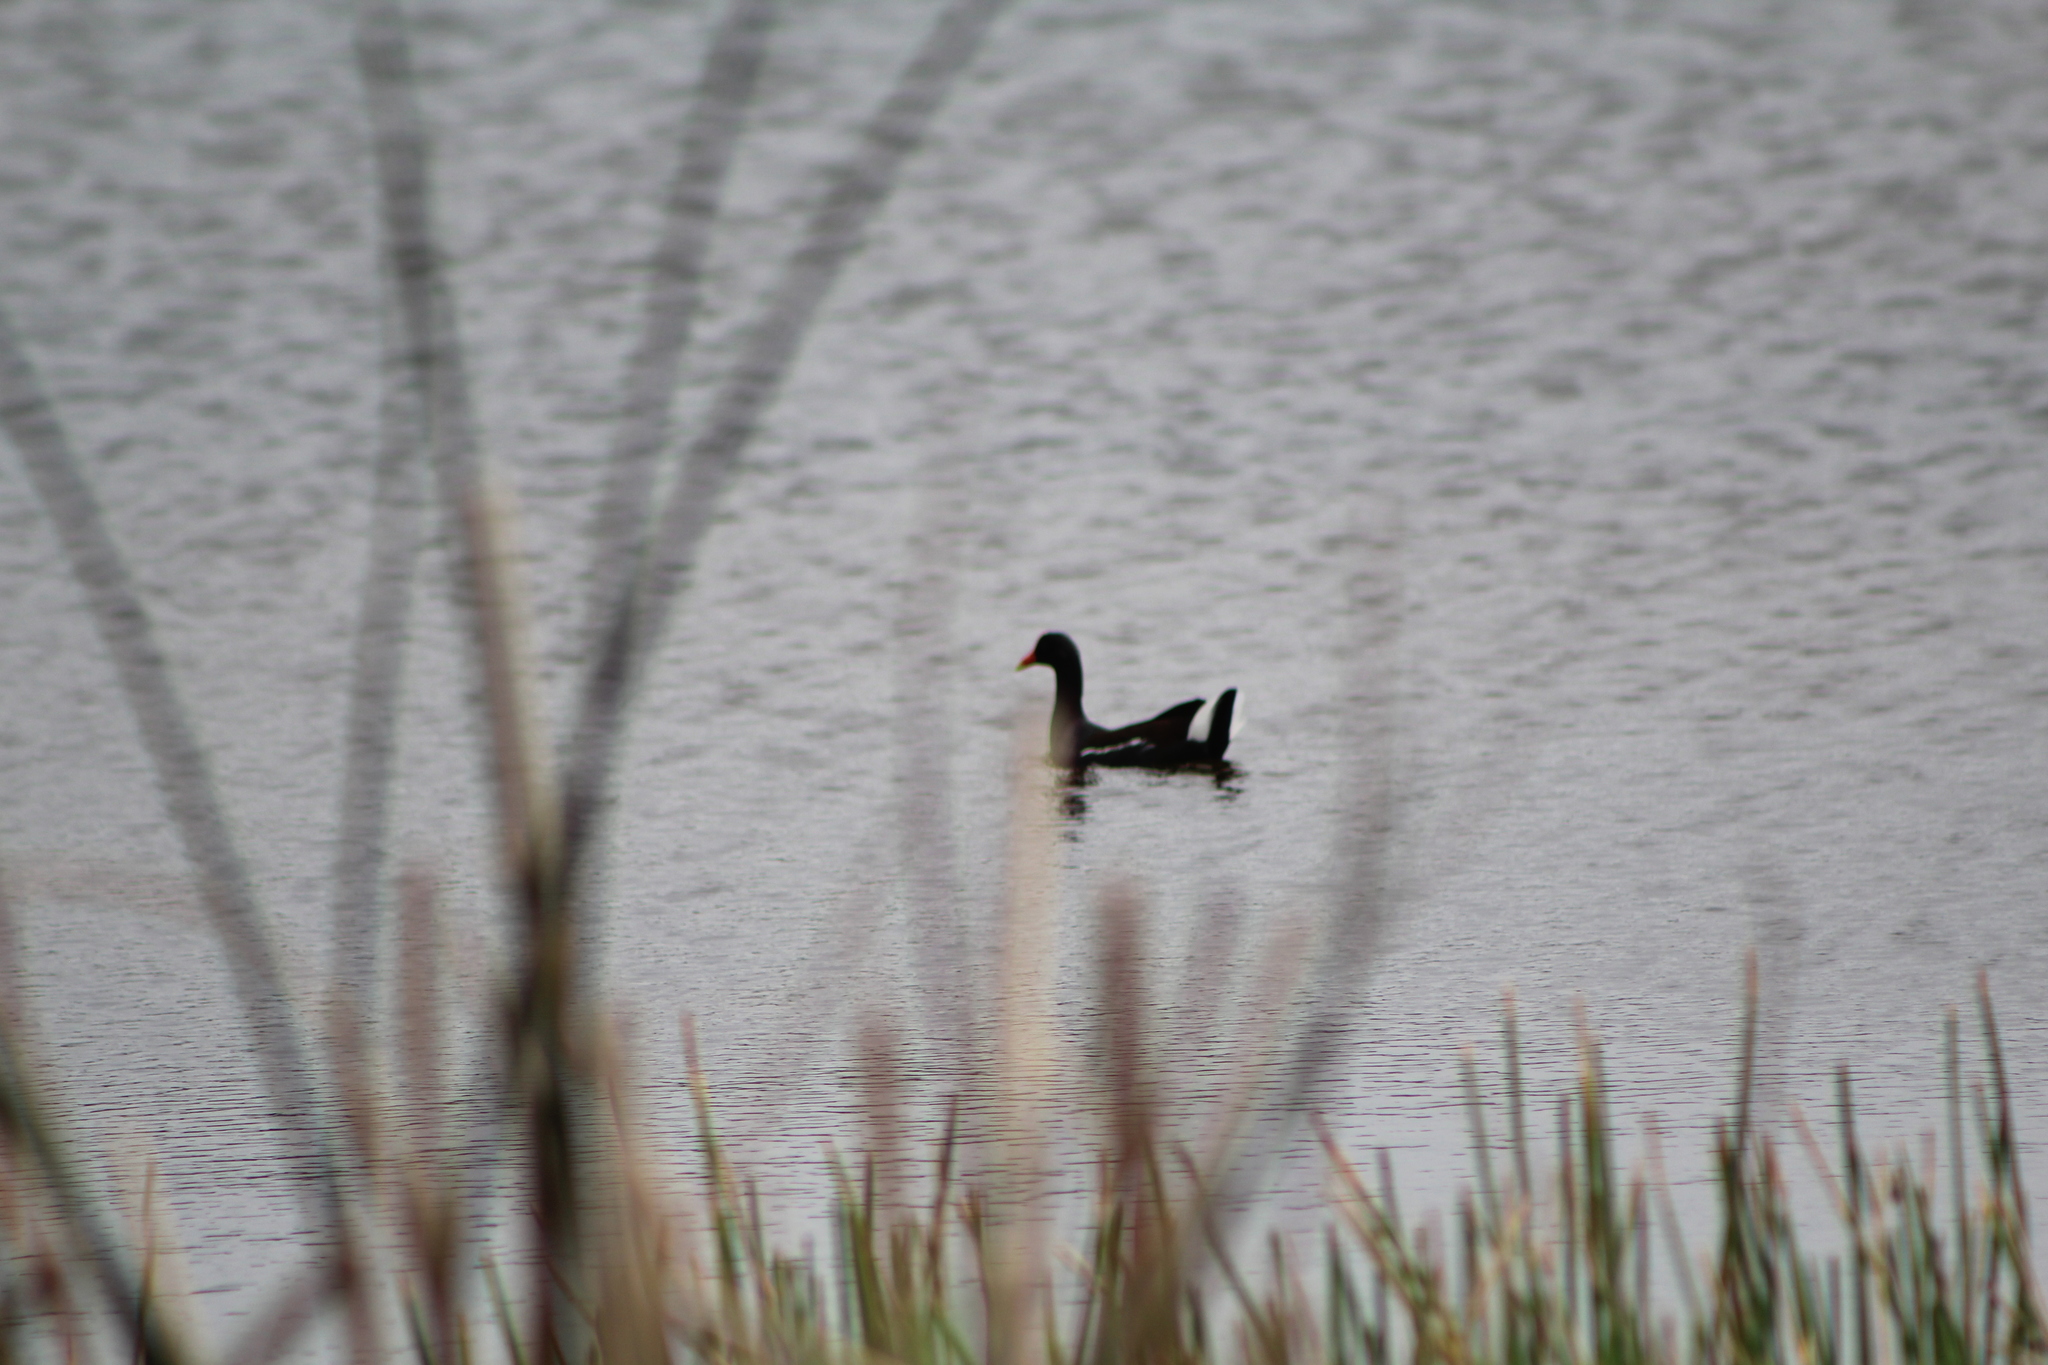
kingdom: Animalia
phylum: Chordata
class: Aves
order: Gruiformes
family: Rallidae
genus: Gallinula
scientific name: Gallinula chloropus
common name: Common moorhen
